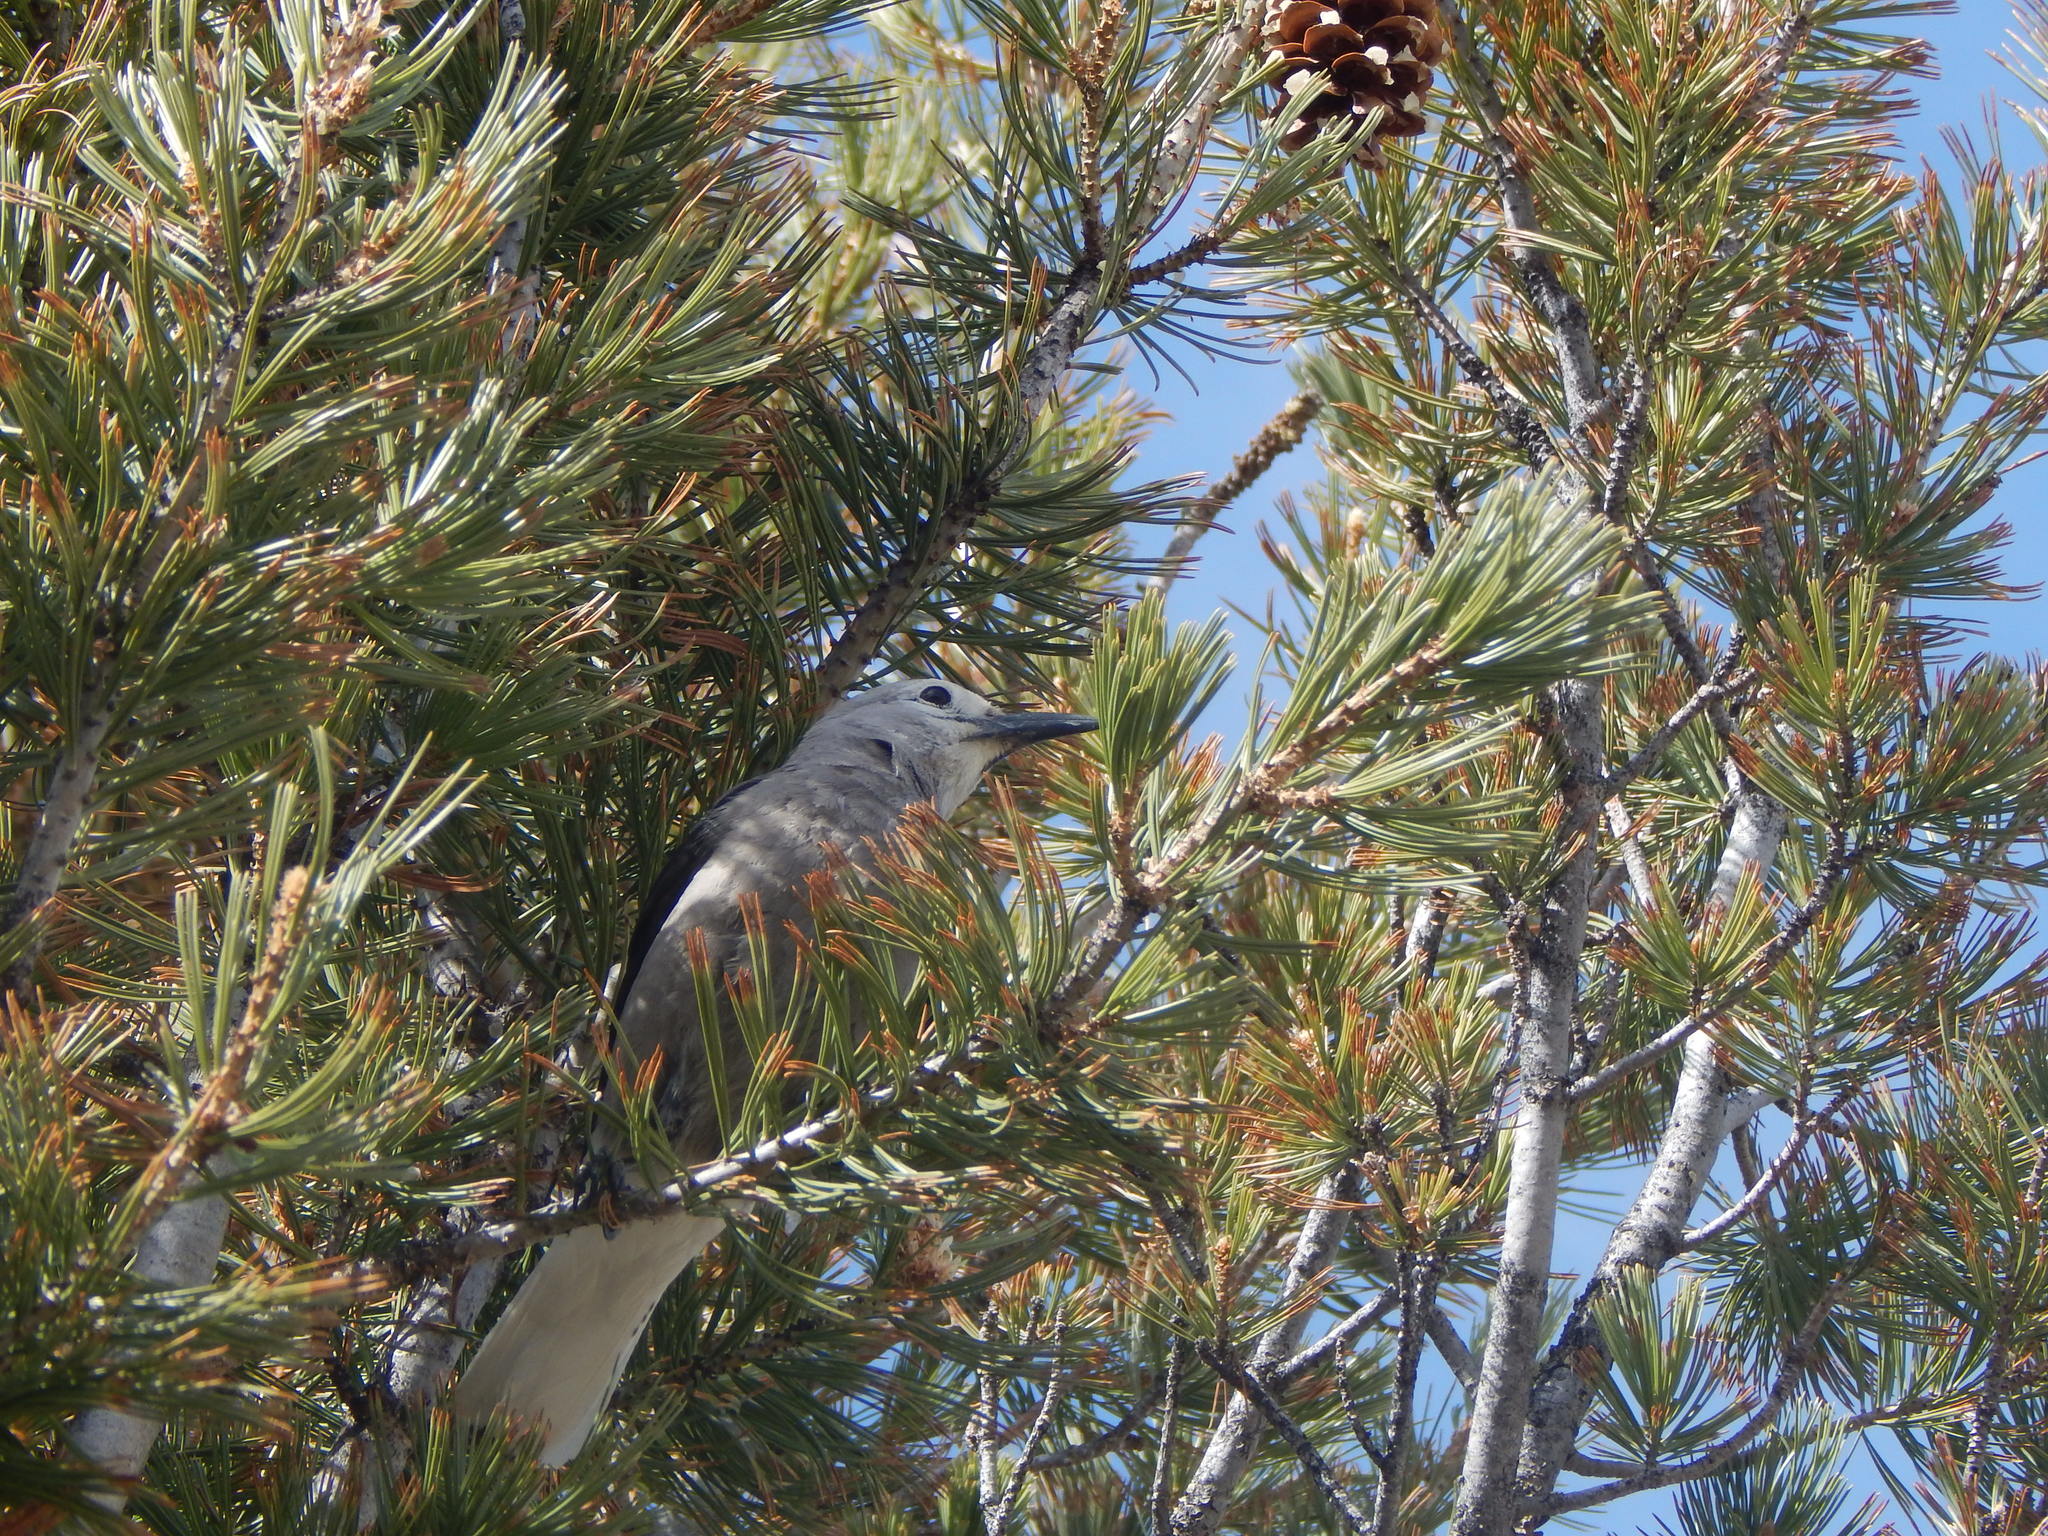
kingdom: Animalia
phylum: Chordata
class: Aves
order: Passeriformes
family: Corvidae
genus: Nucifraga
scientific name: Nucifraga columbiana
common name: Clark's nutcracker
